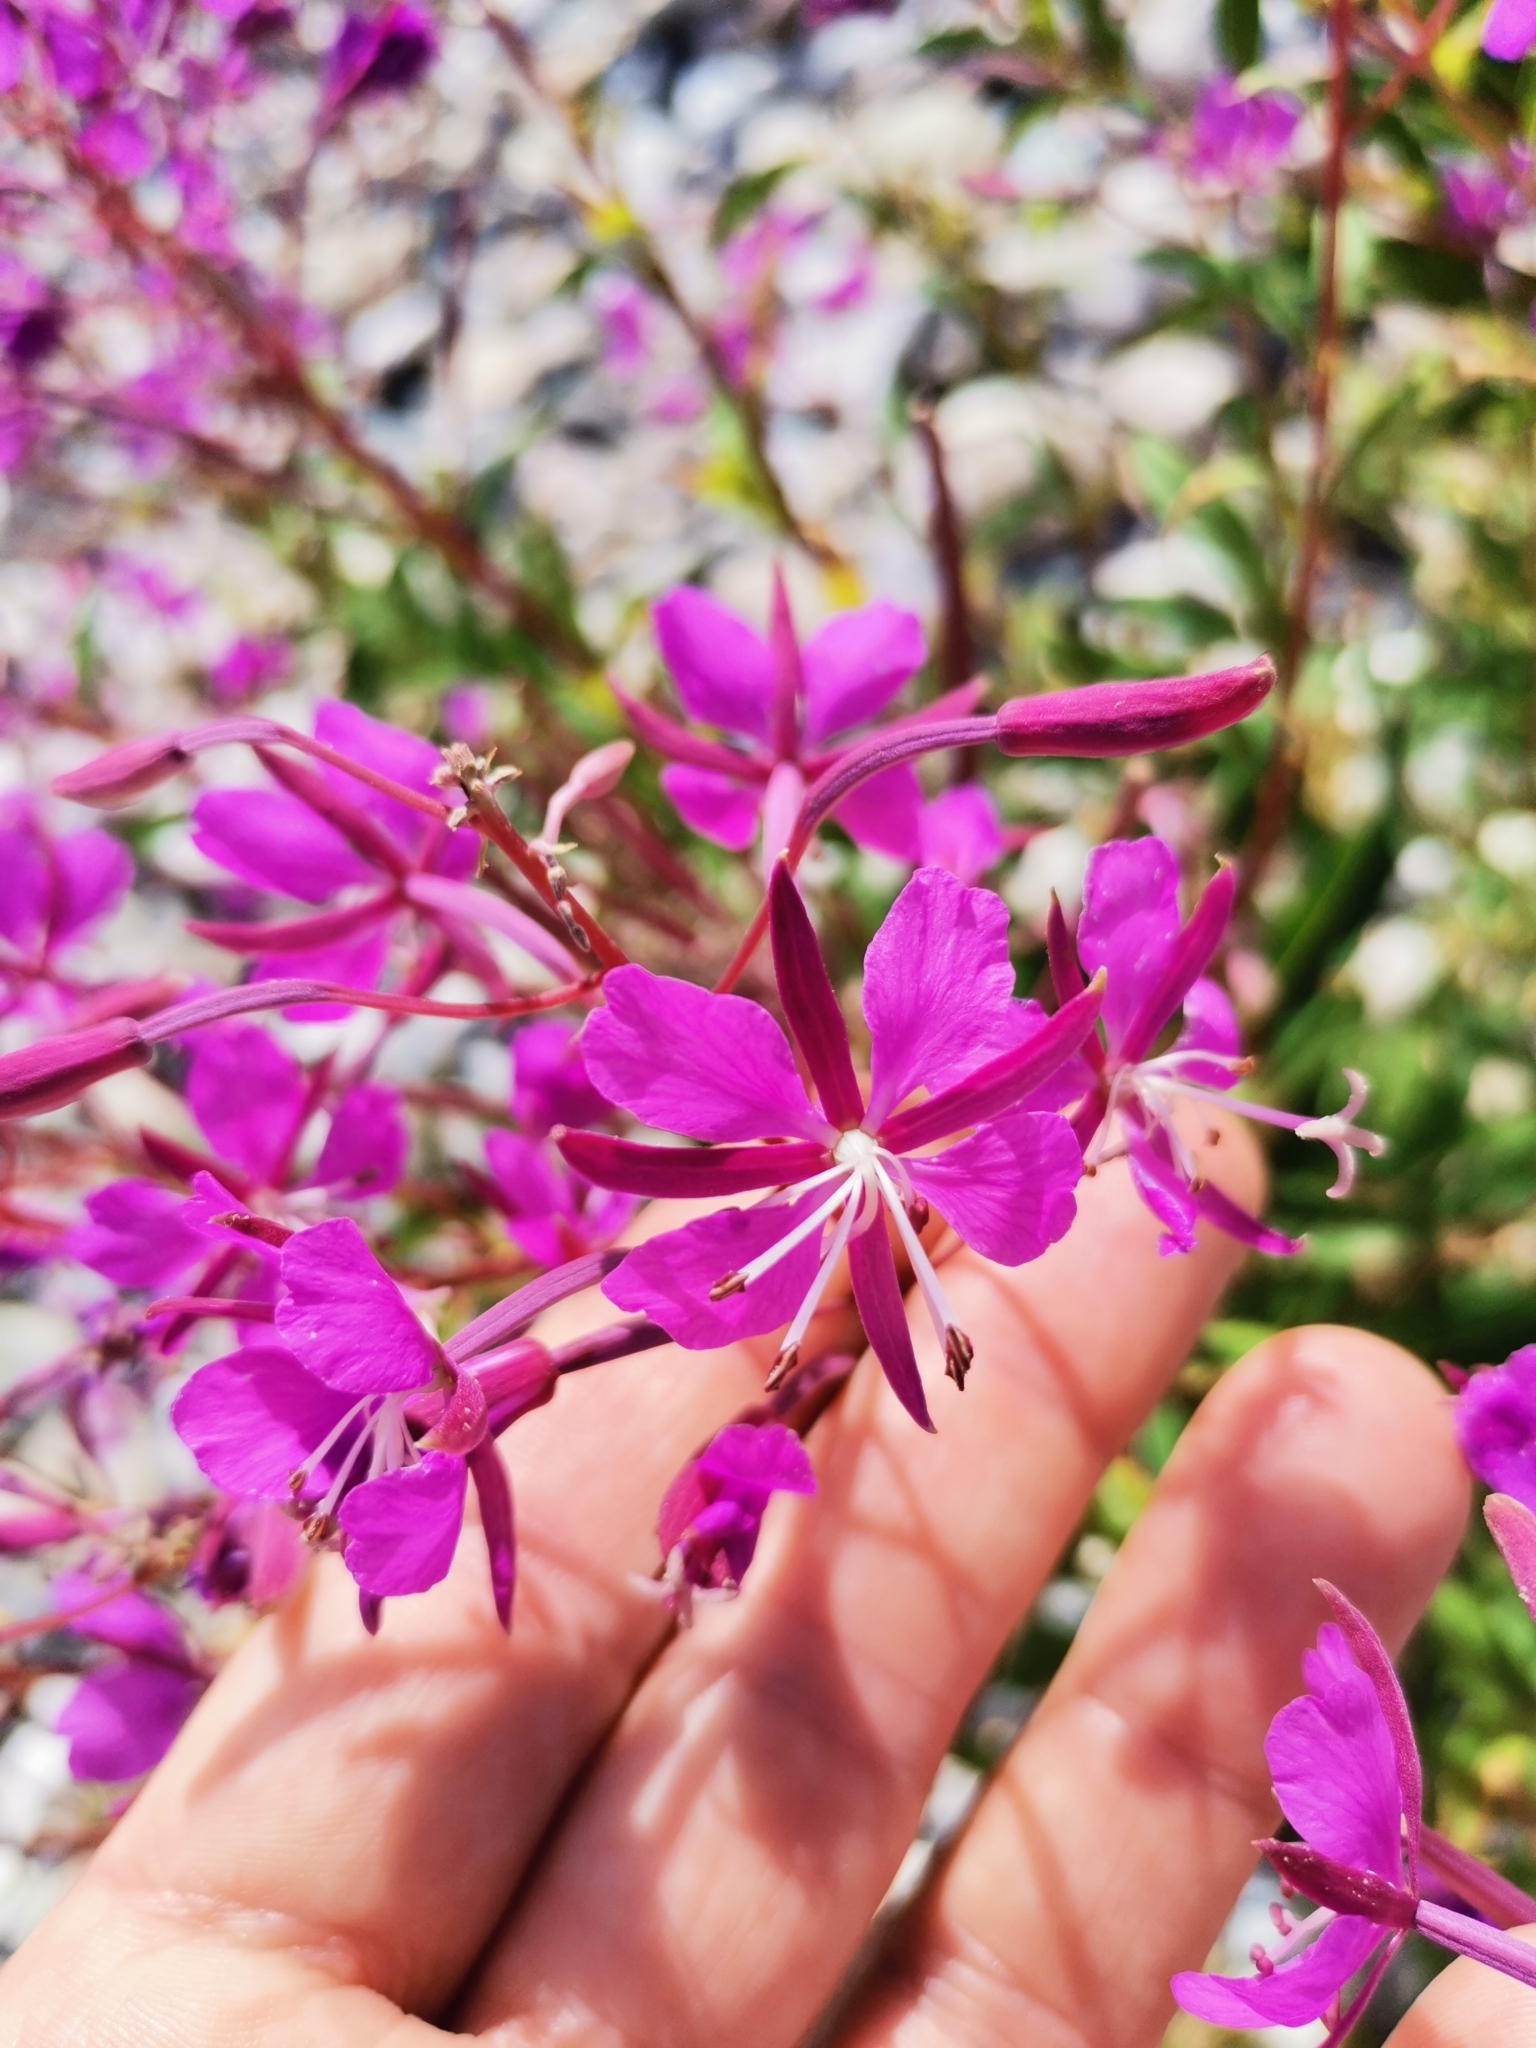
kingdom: Plantae
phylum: Tracheophyta
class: Magnoliopsida
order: Myrtales
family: Onagraceae
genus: Chamaenerion
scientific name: Chamaenerion angustifolium
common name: Fireweed
